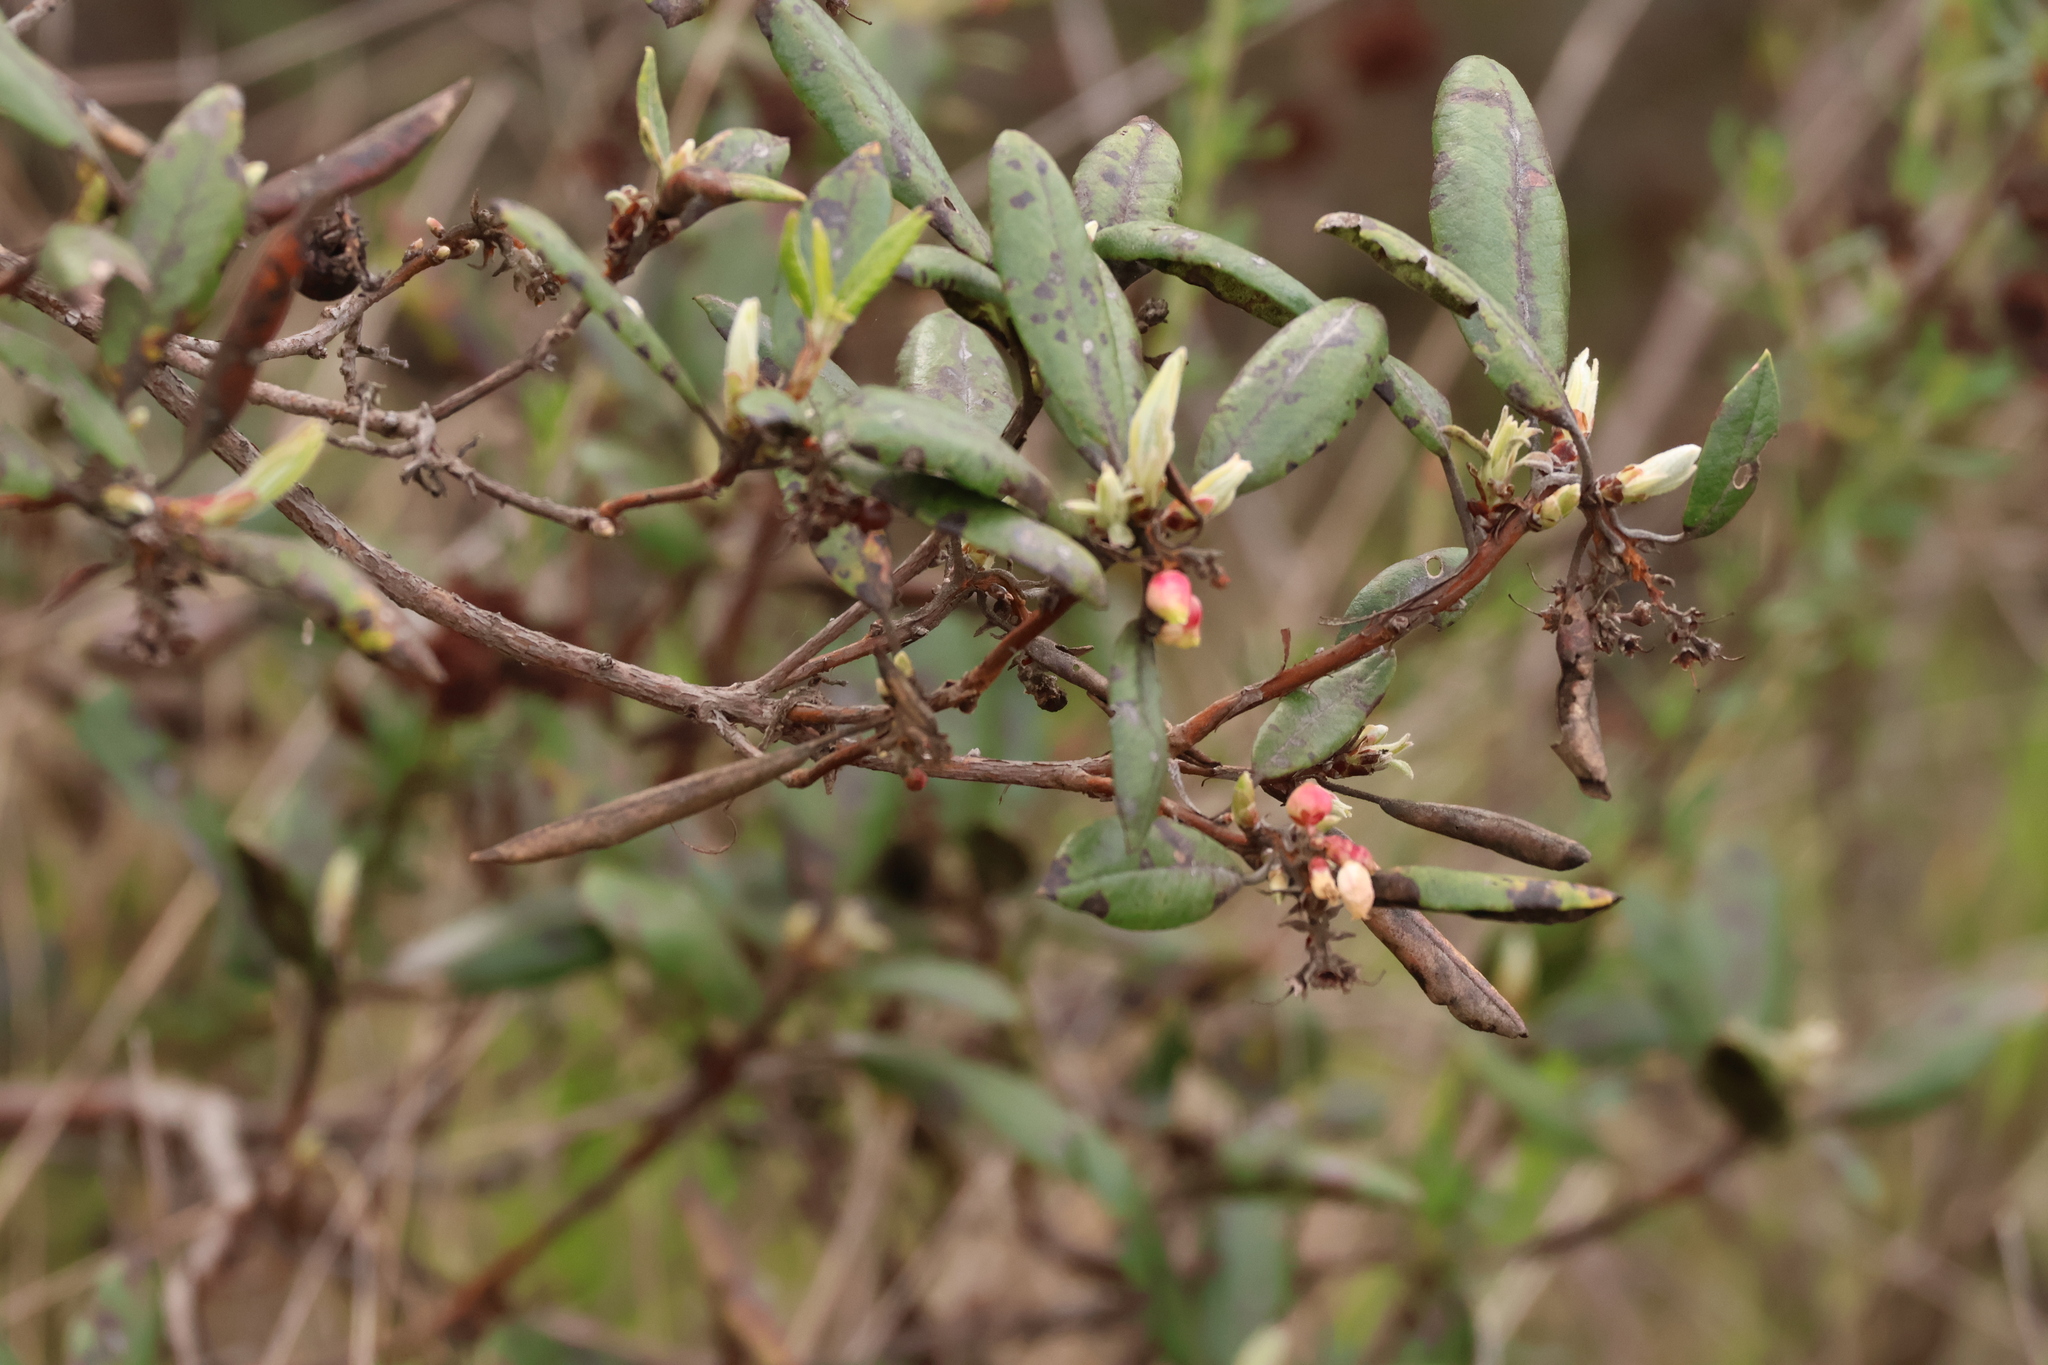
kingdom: Plantae
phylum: Tracheophyta
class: Magnoliopsida
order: Ericales
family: Ericaceae
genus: Arctostaphylos
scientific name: Arctostaphylos bicolor
